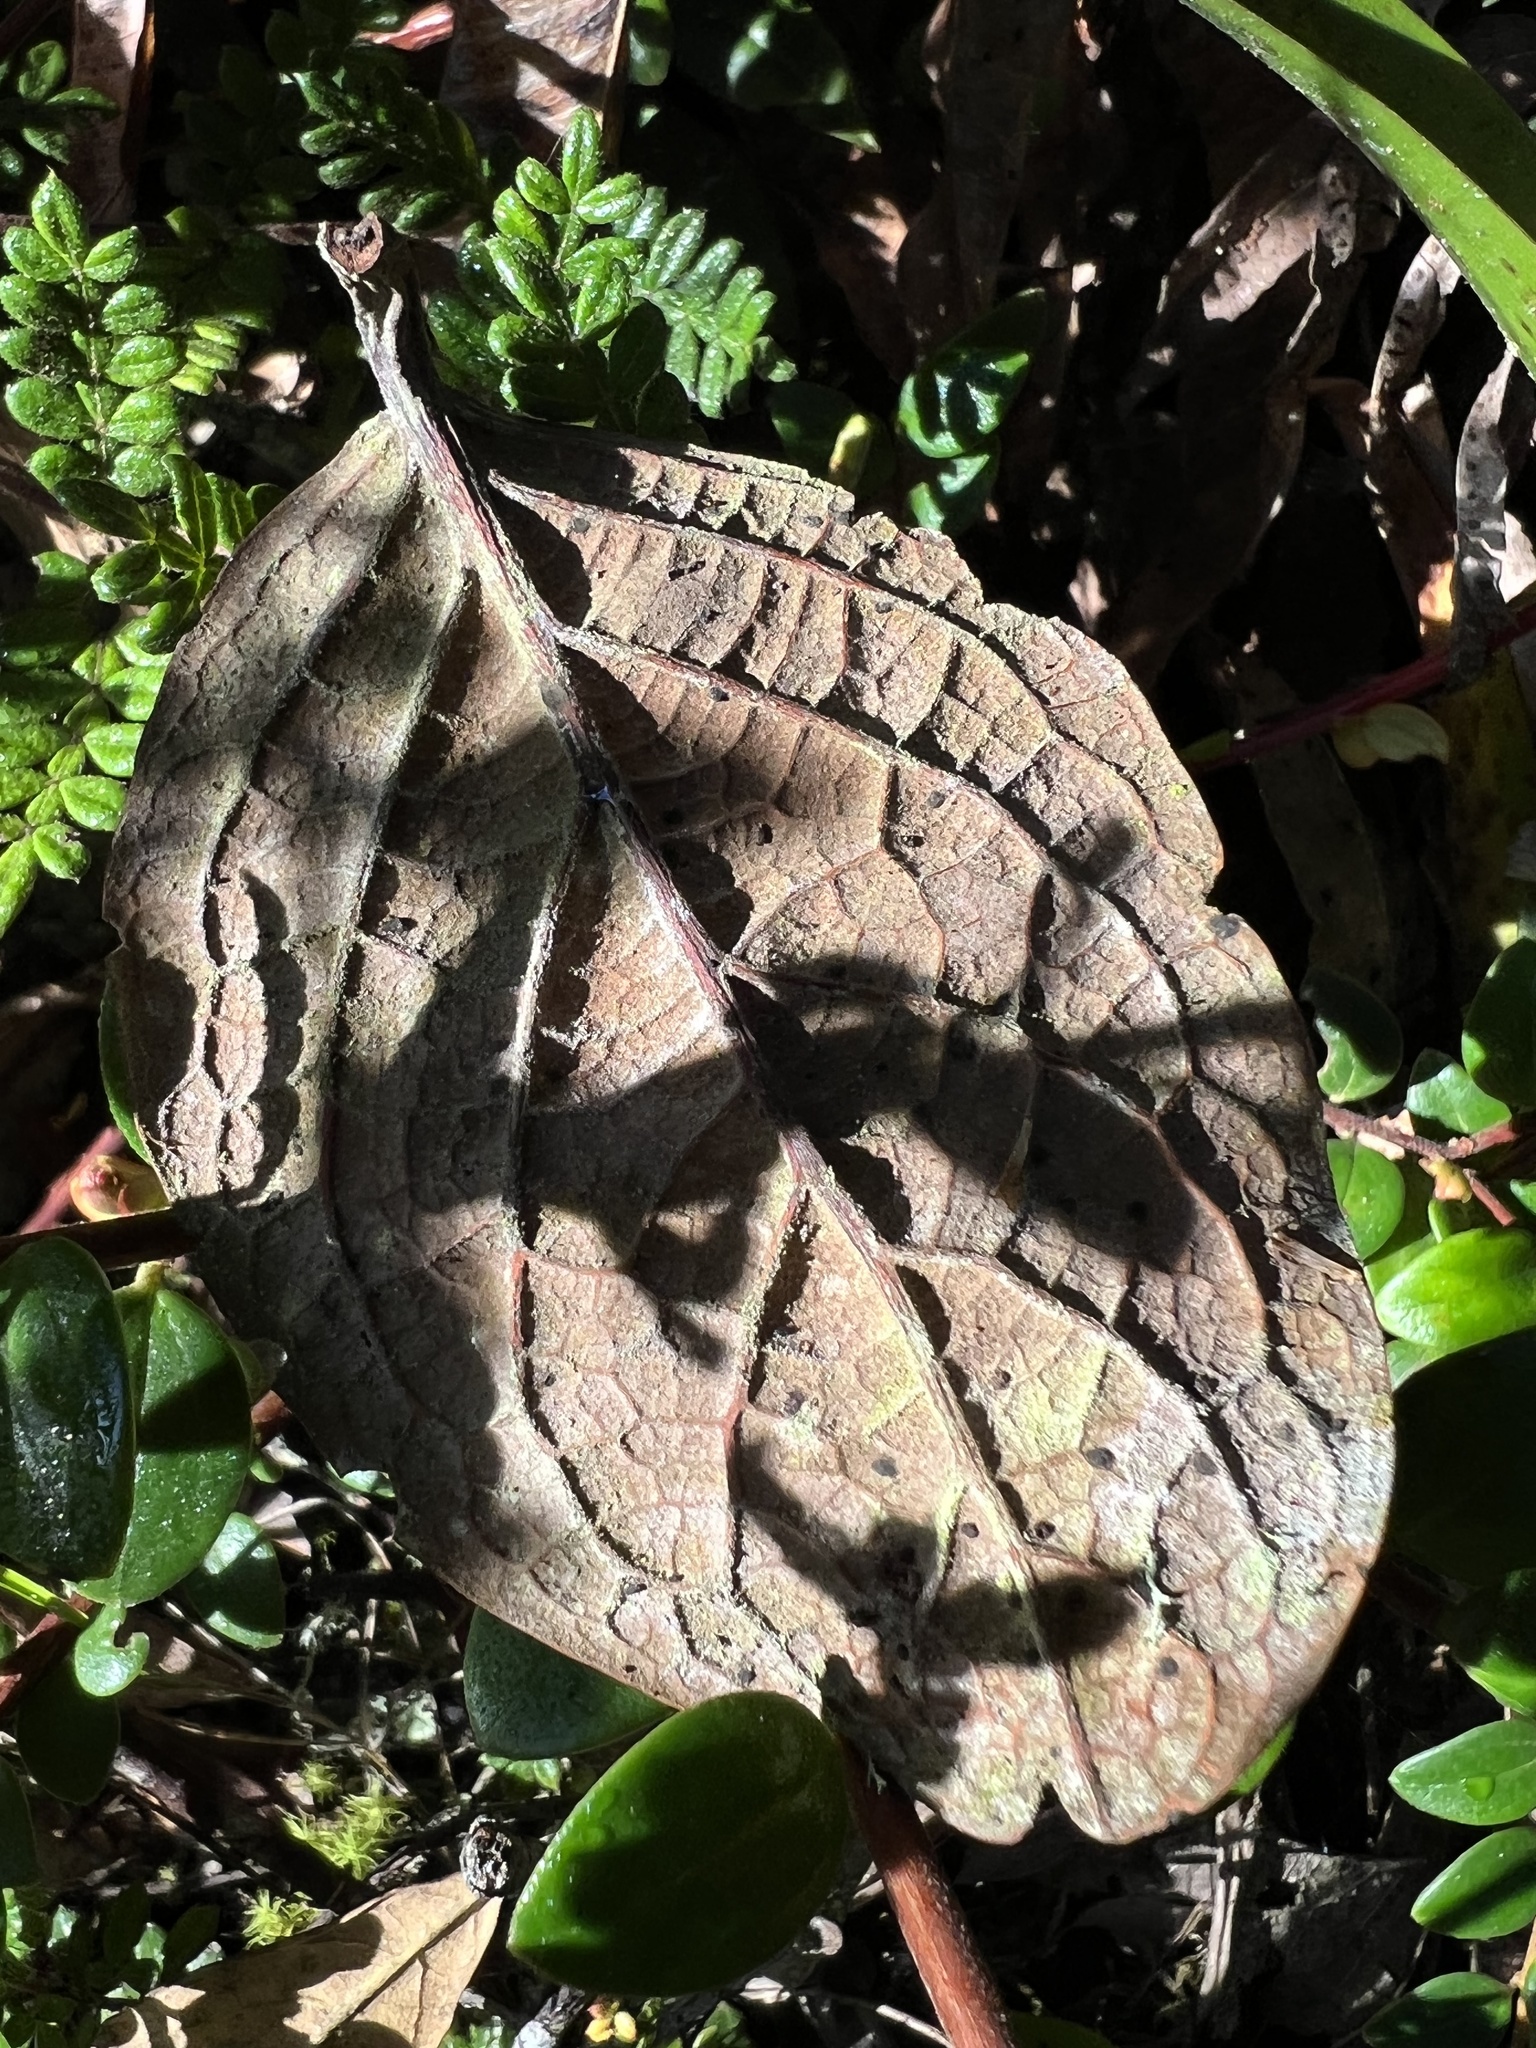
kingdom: Plantae
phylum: Tracheophyta
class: Magnoliopsida
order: Laurales
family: Lauraceae
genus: Ocotea
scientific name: Ocotea pedicellata
